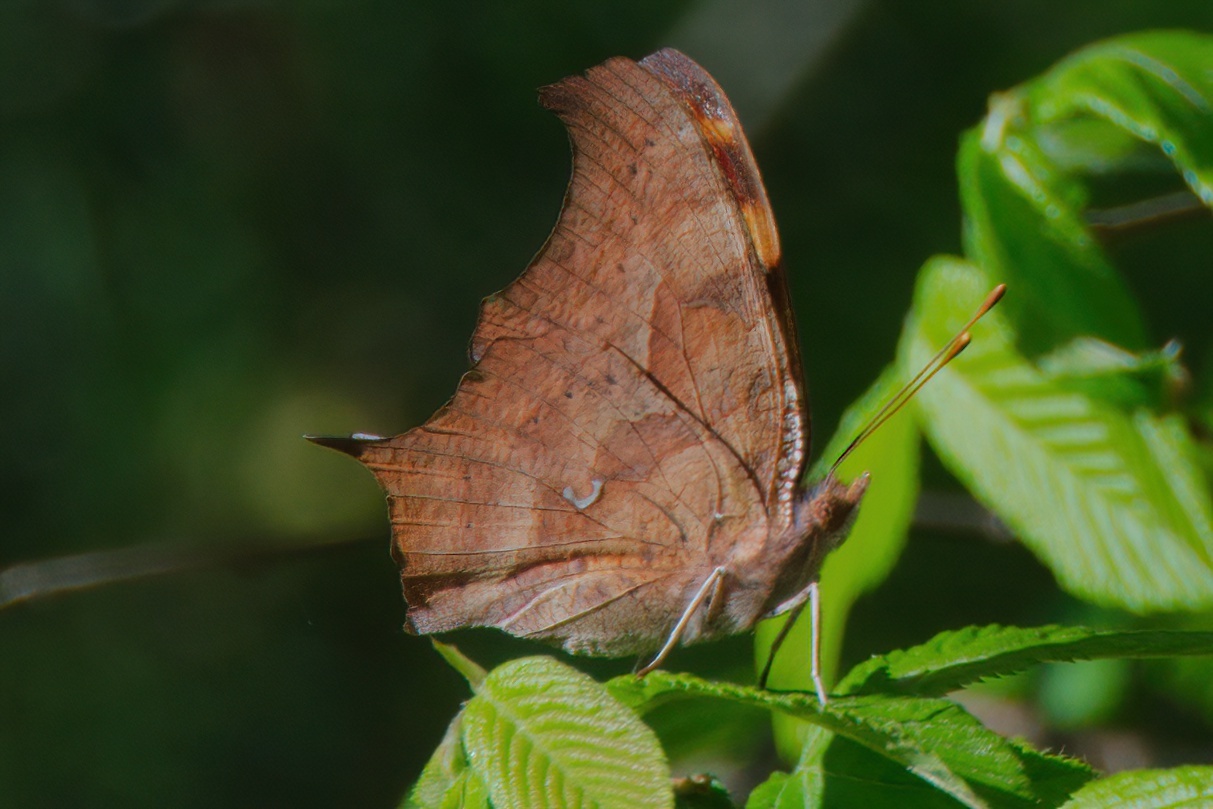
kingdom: Animalia
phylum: Arthropoda
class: Insecta
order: Lepidoptera
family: Nymphalidae
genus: Polygonia
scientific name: Polygonia interrogationis
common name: Question mark
